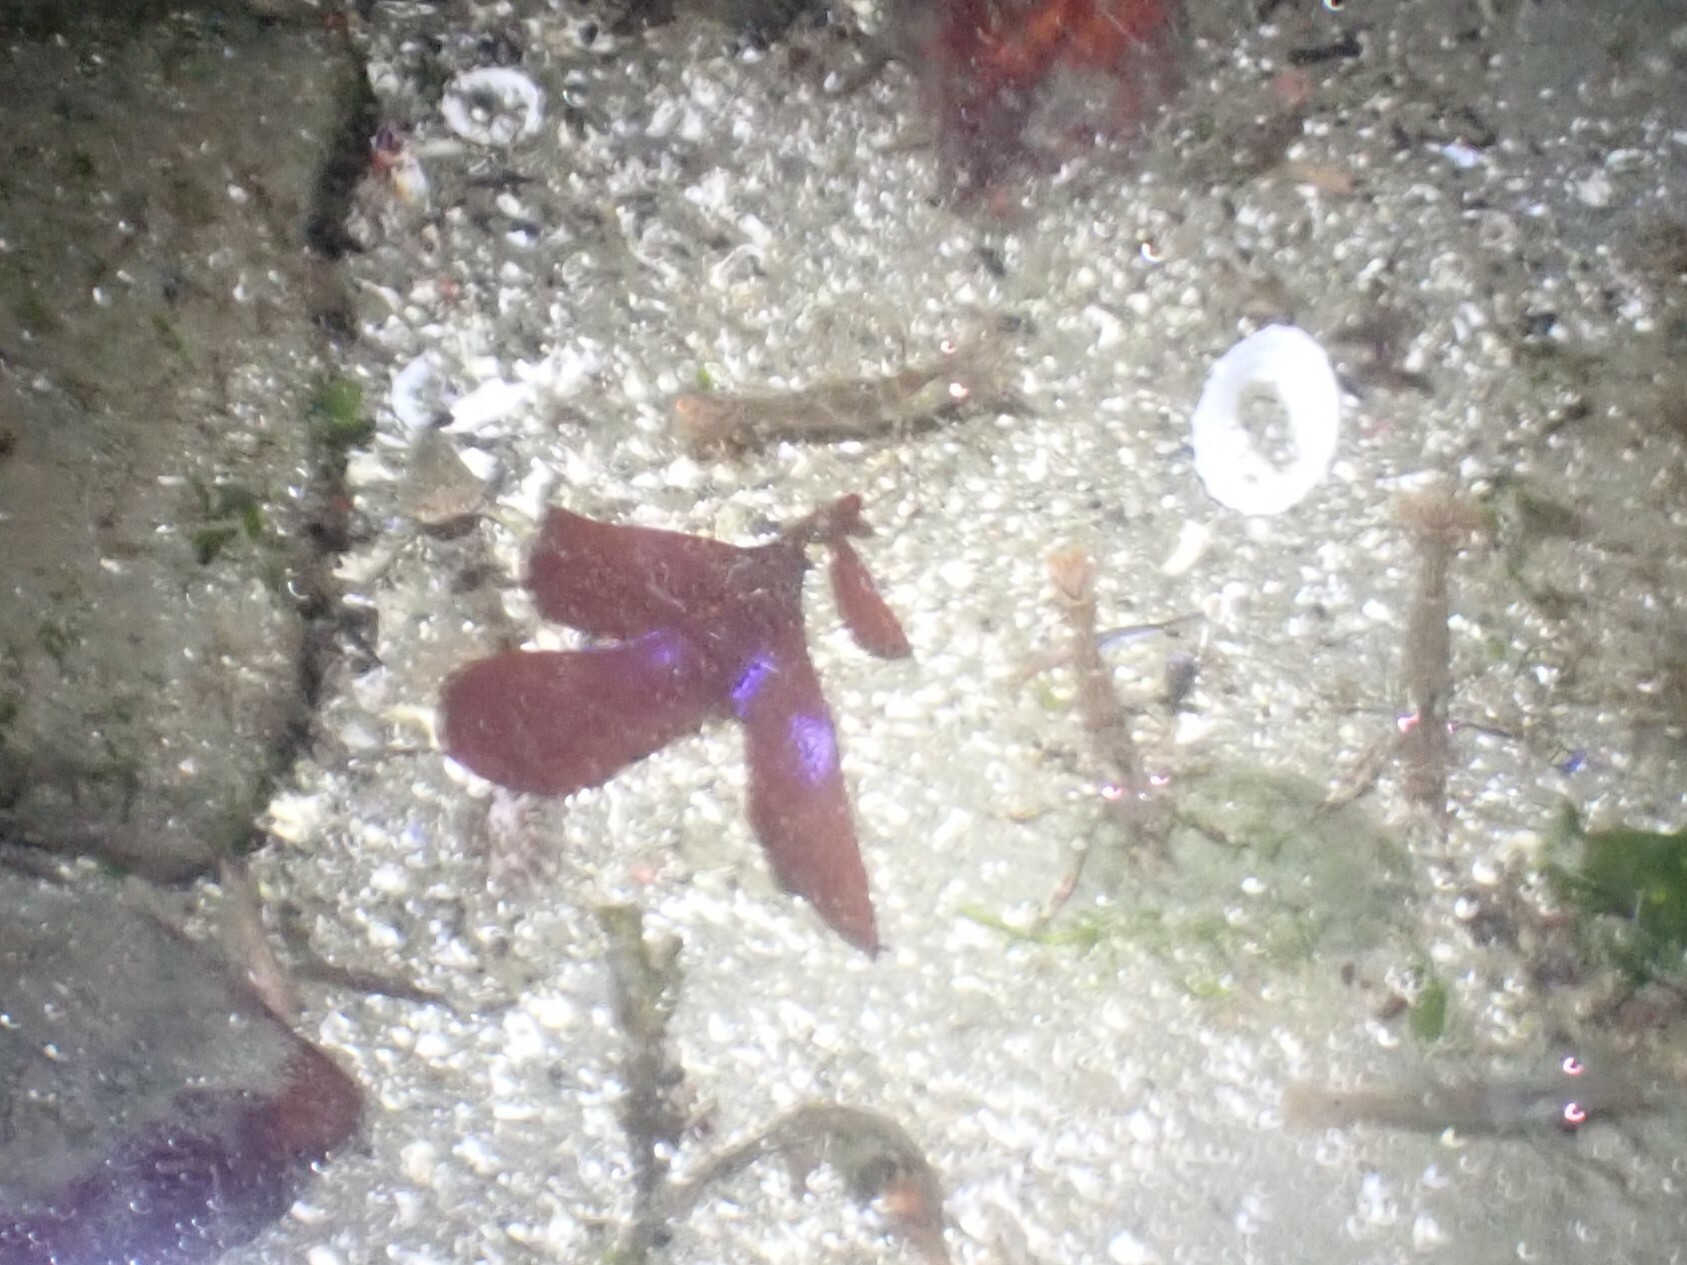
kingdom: Plantae
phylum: Rhodophyta
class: Florideophyceae
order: Gigartinales
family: Gigartinaceae
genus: Mazzaella
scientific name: Mazzaella splendens
